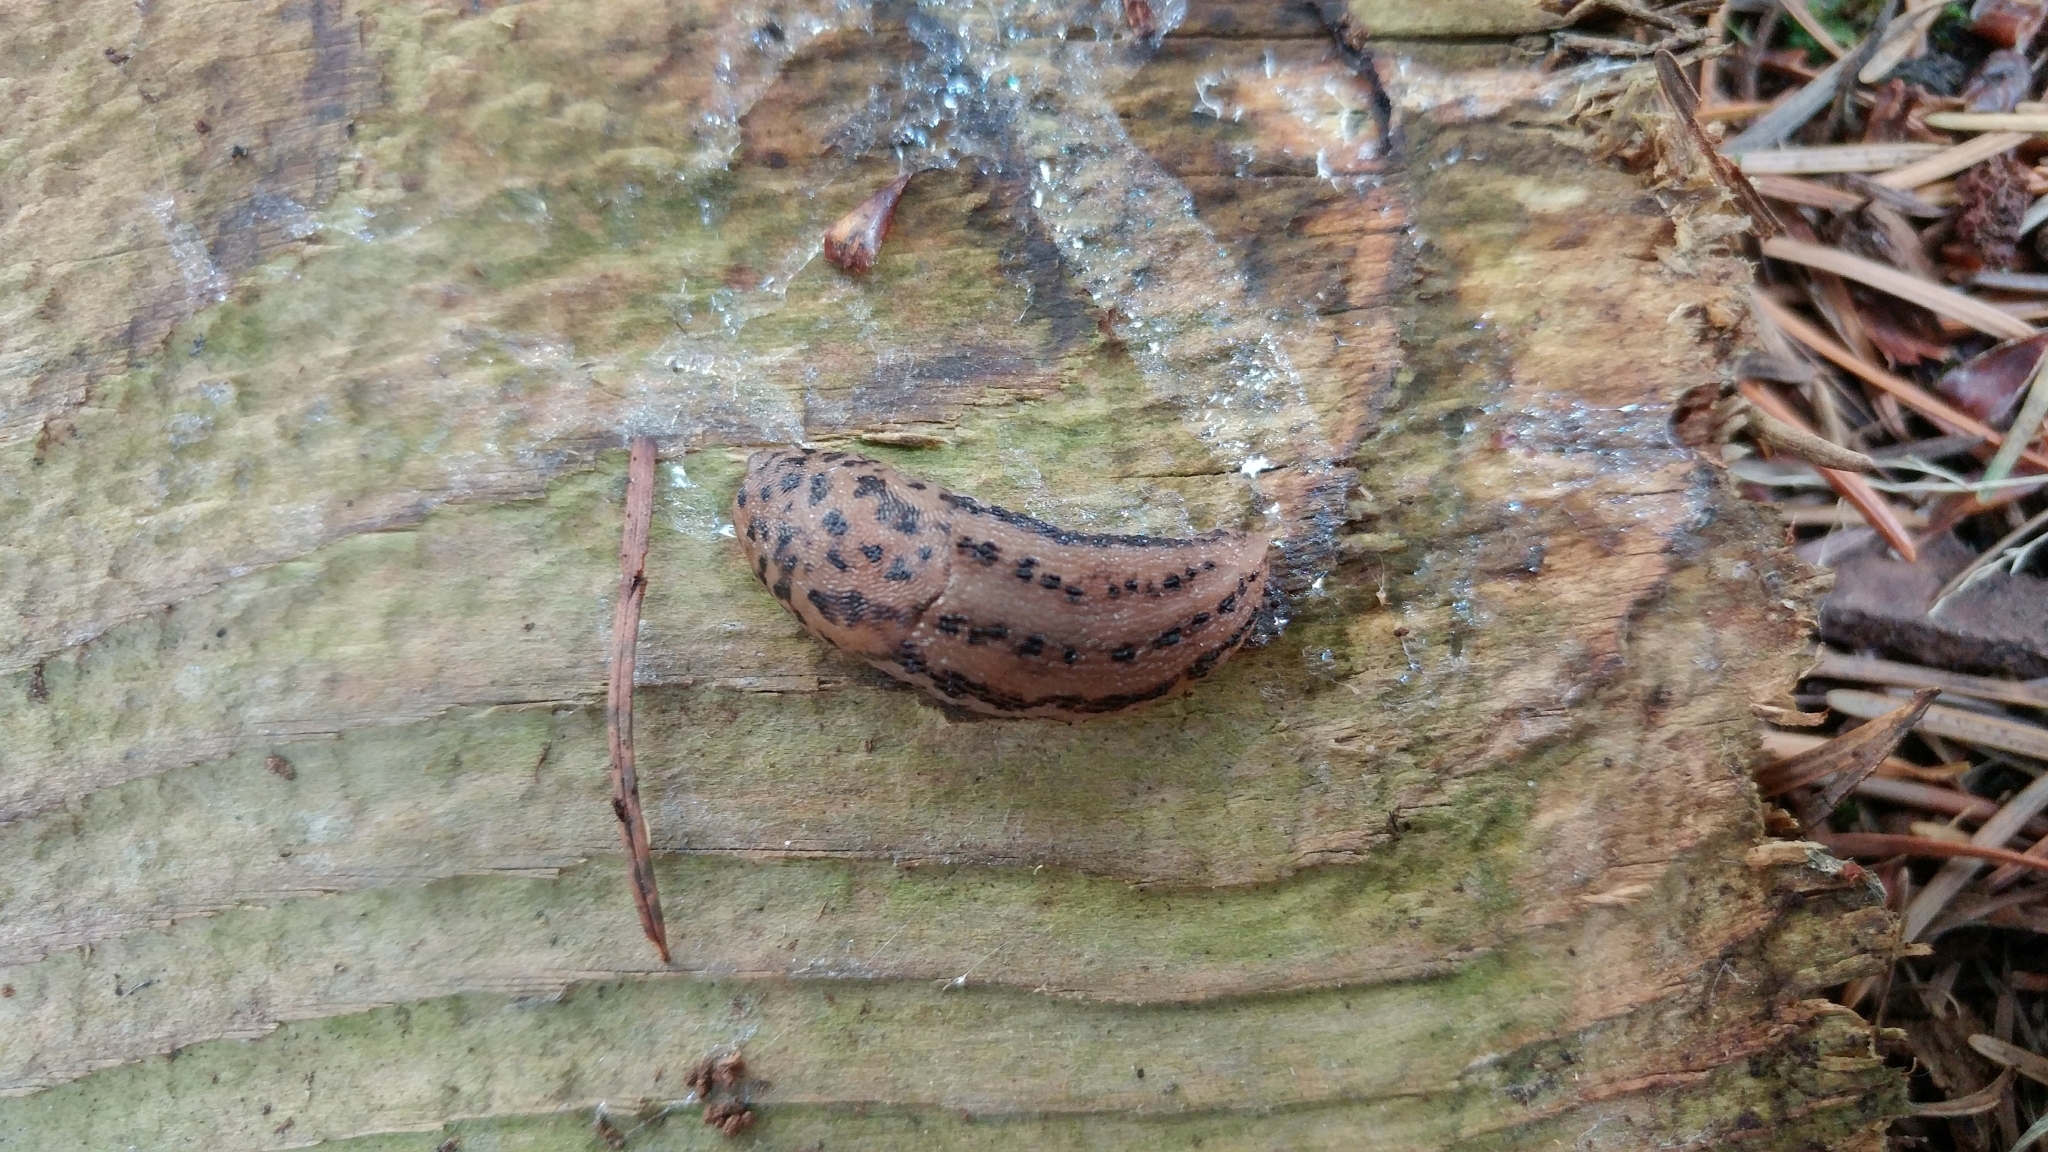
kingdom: Animalia
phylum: Mollusca
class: Gastropoda
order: Stylommatophora
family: Limacidae
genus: Limax
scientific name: Limax maximus
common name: Great grey slug
